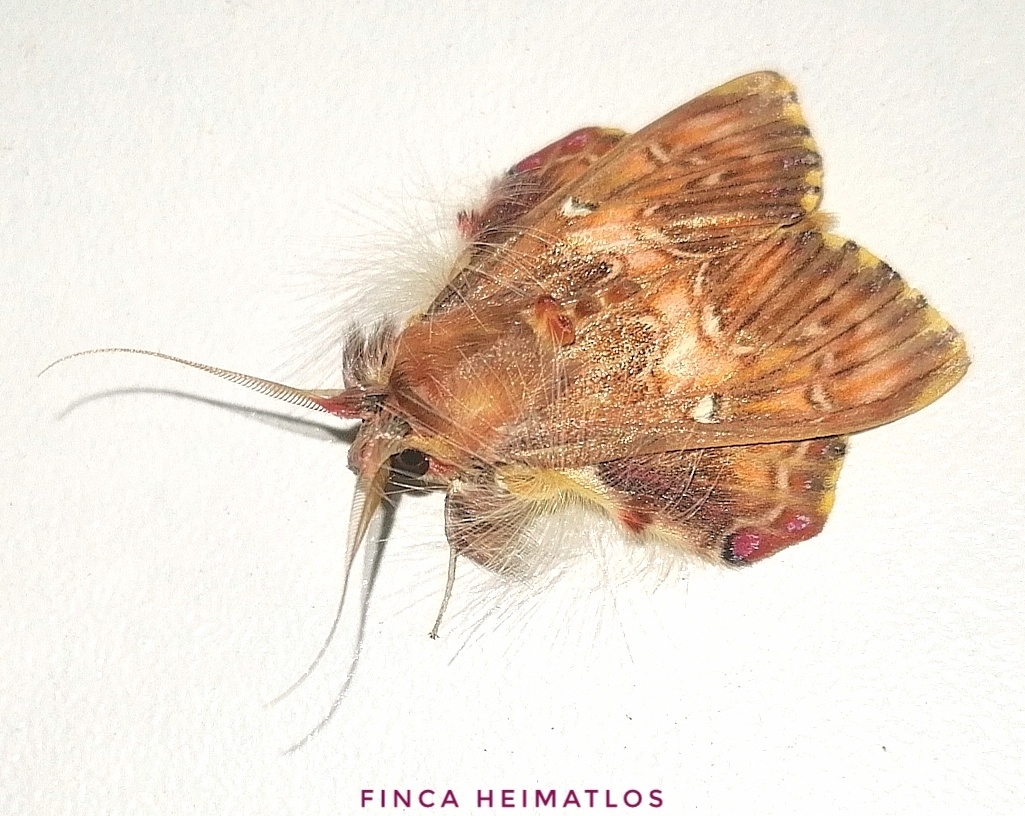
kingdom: Animalia
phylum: Arthropoda
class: Insecta
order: Lepidoptera
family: Erebidae
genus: Sosxetra
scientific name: Sosxetra grata
